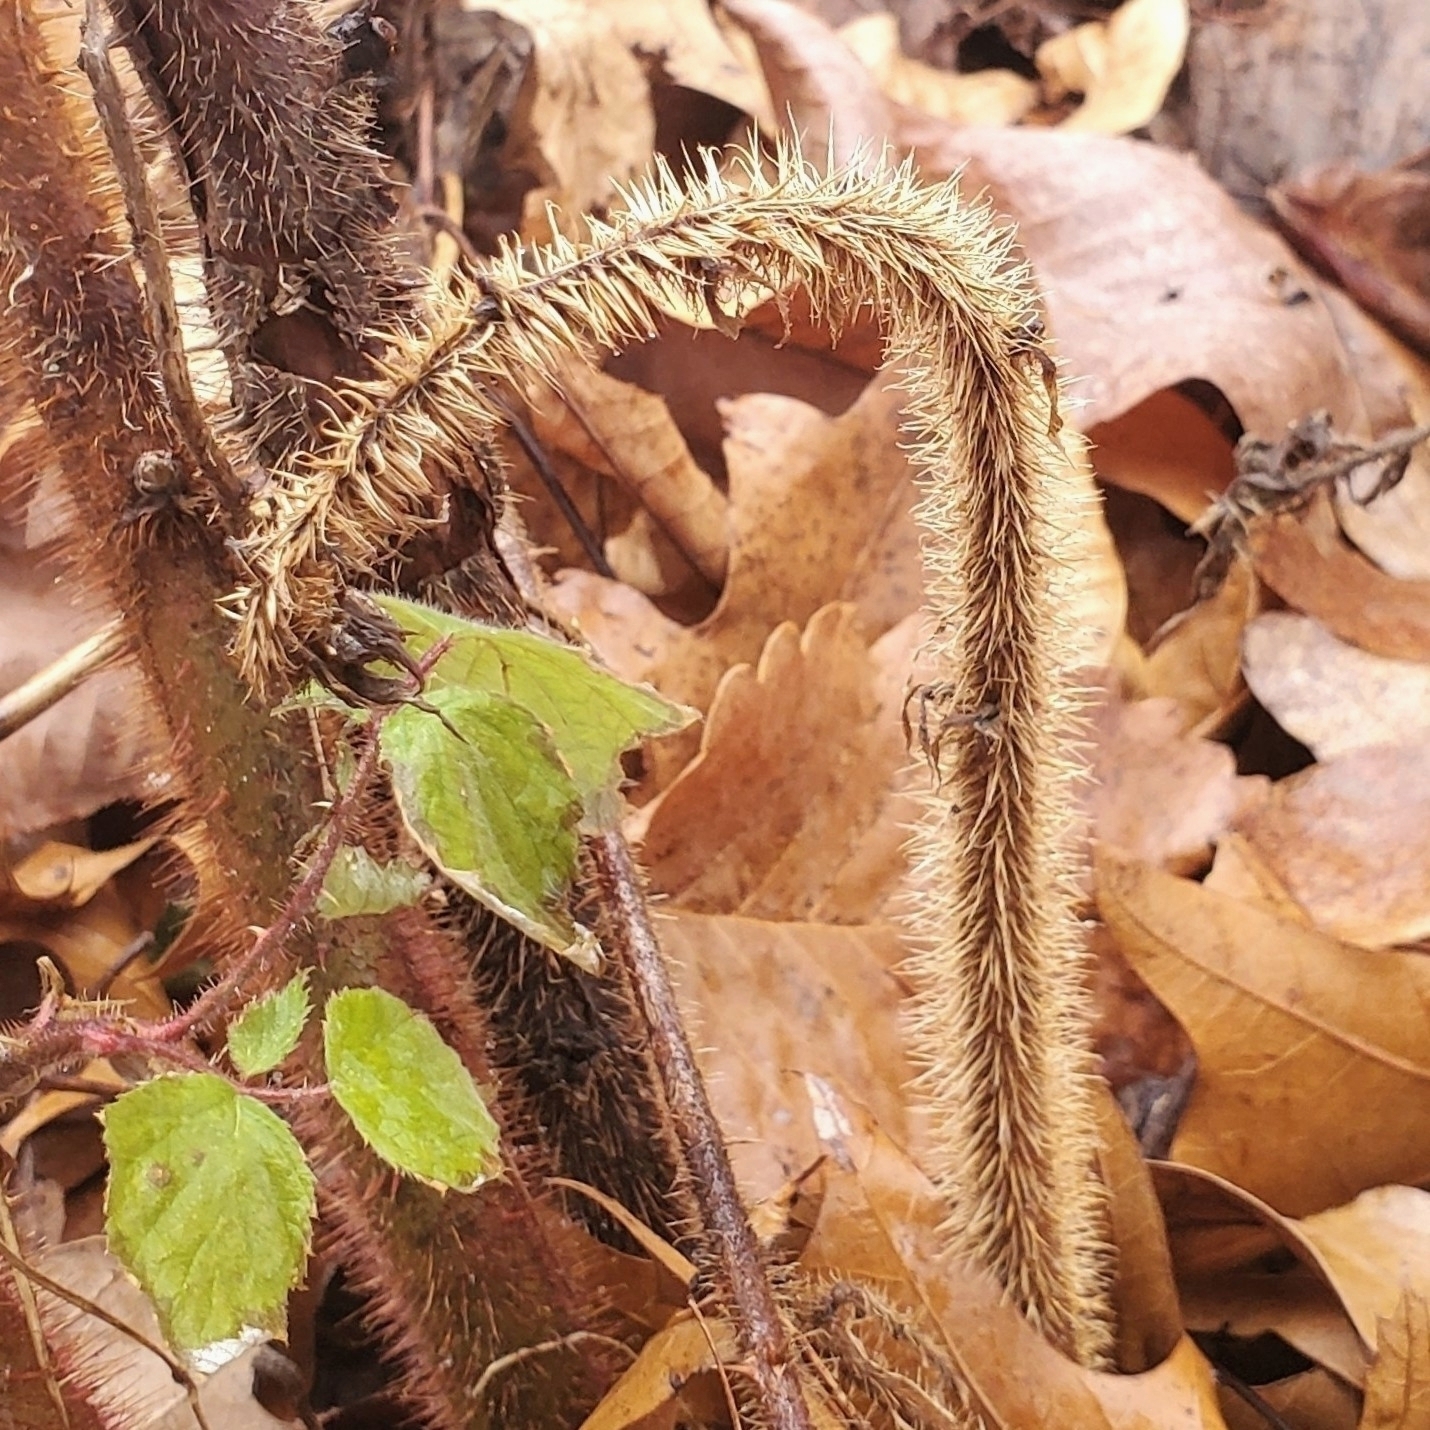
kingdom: Plantae
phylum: Tracheophyta
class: Magnoliopsida
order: Rosales
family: Rosaceae
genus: Rubus
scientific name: Rubus phoenicolasius
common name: Japanese wineberry
